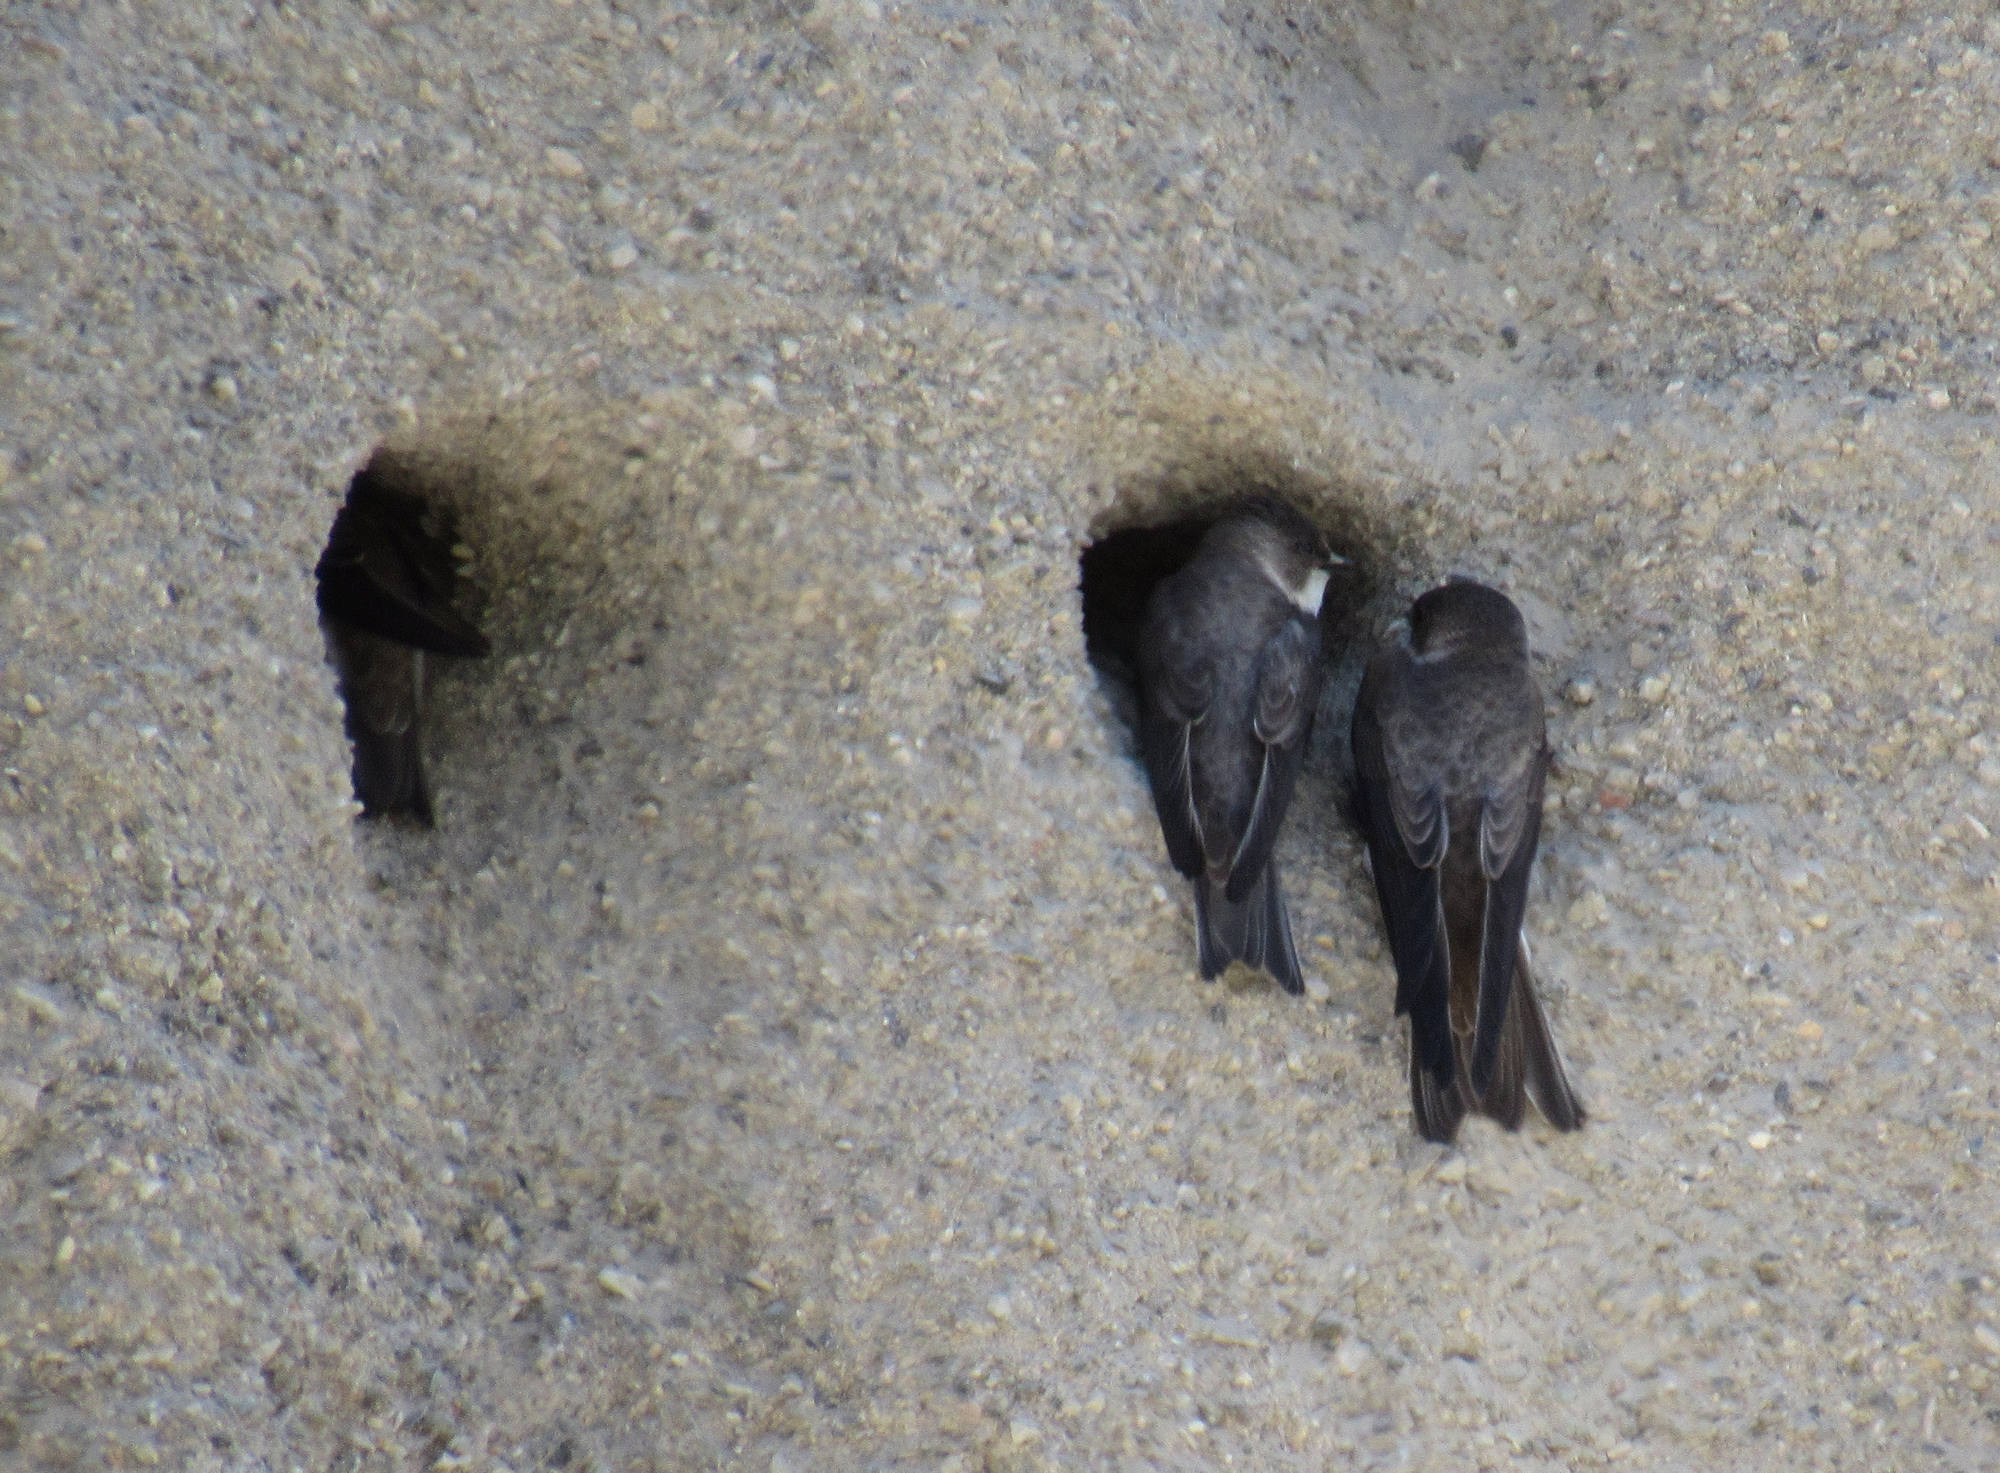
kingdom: Animalia
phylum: Chordata
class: Aves
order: Passeriformes
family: Hirundinidae
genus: Riparia
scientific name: Riparia riparia
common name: Sand martin
